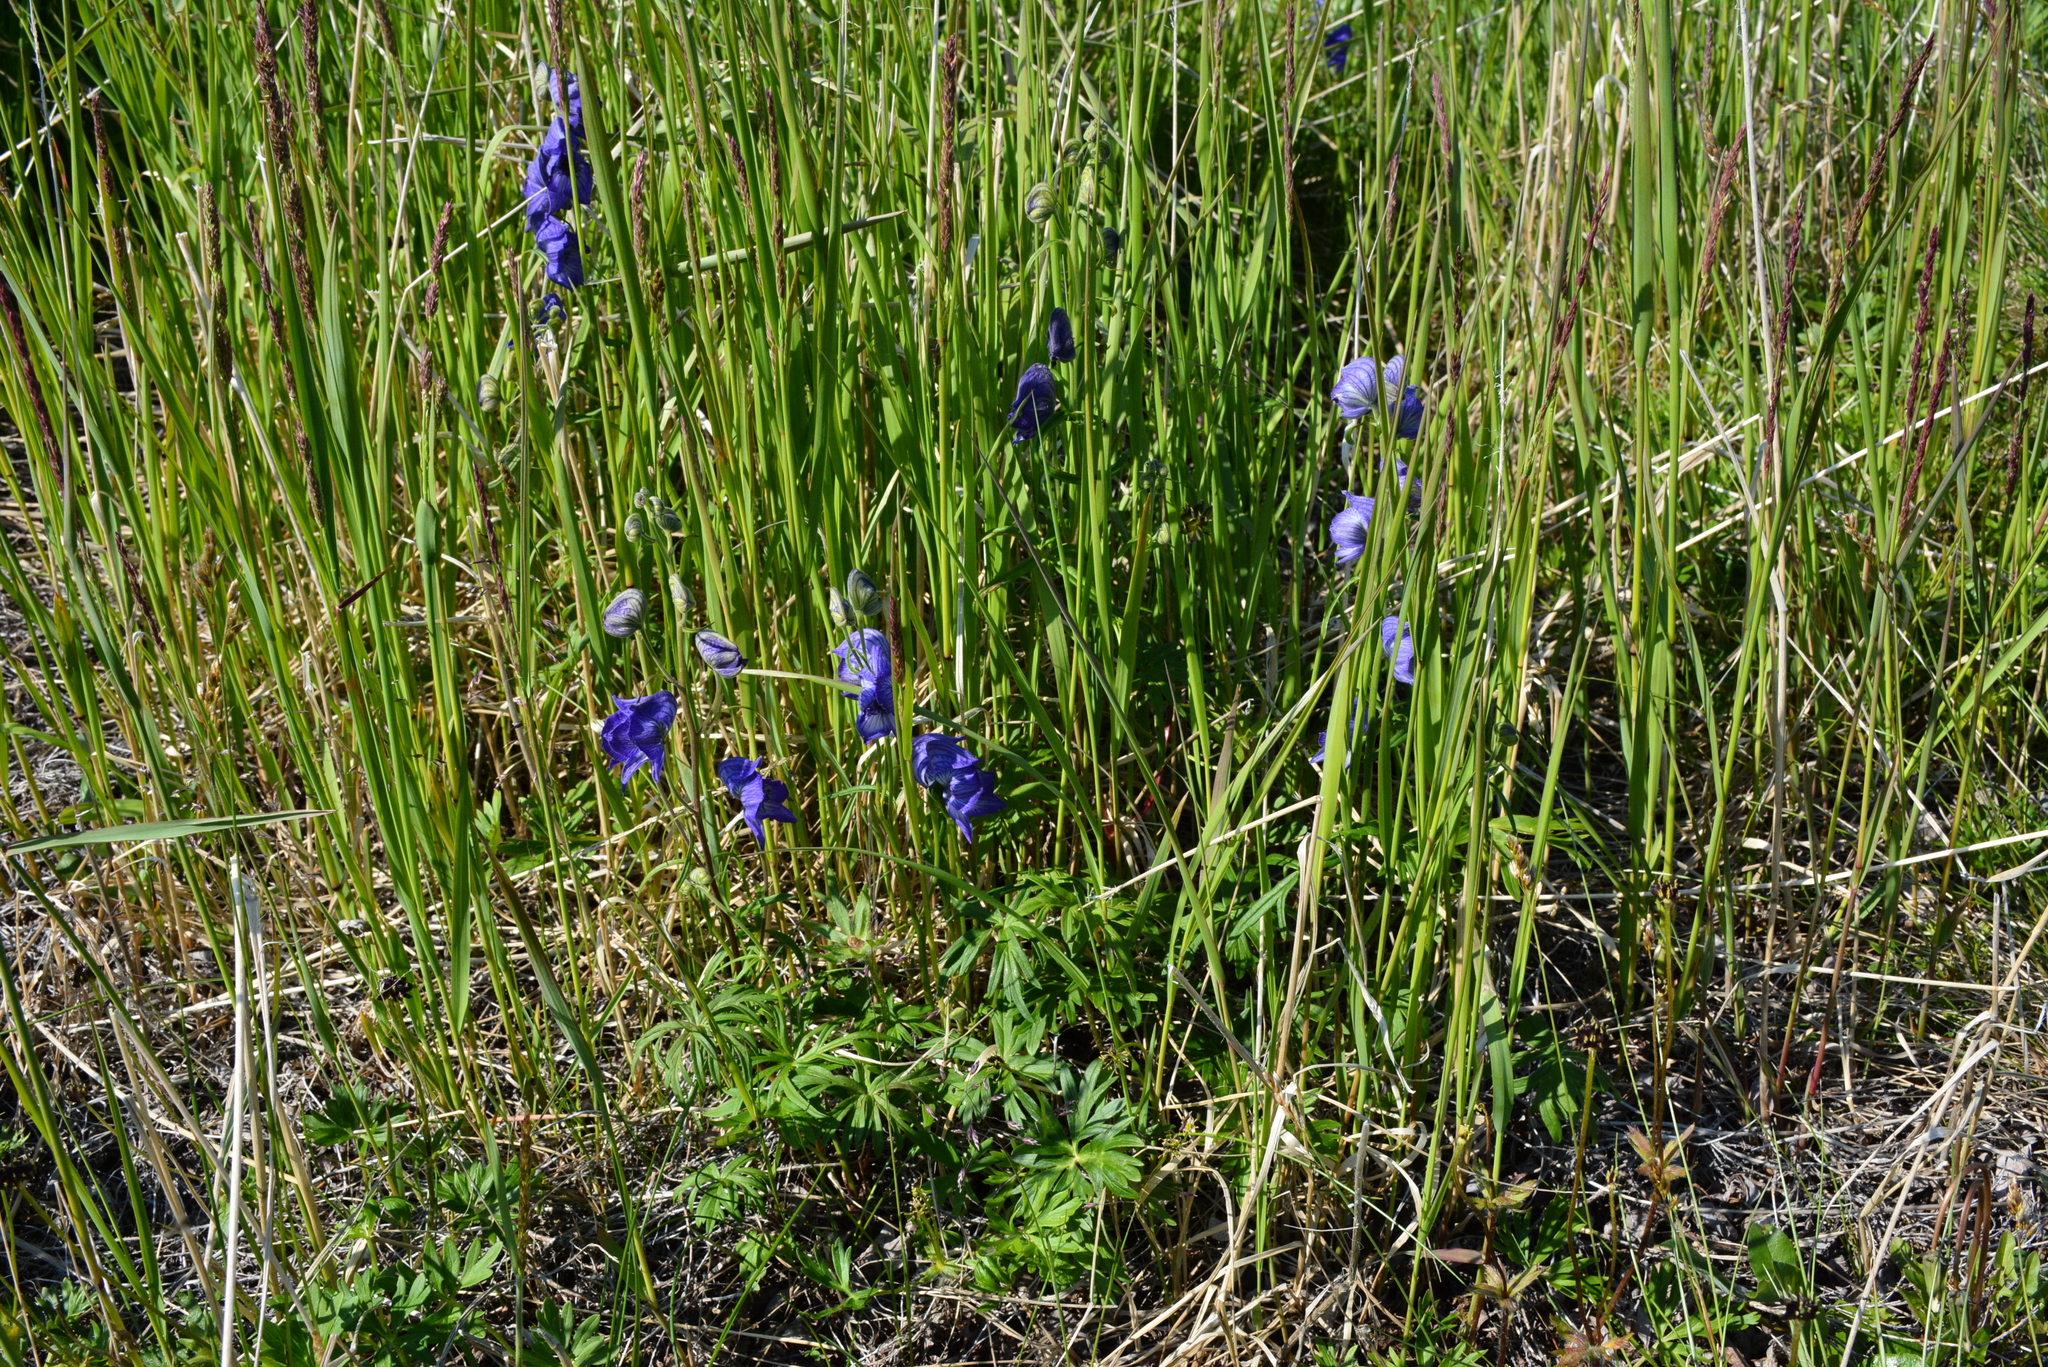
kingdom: Plantae
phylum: Tracheophyta
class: Magnoliopsida
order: Ranunculales
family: Ranunculaceae
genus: Aconitum
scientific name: Aconitum delphiniifolium
